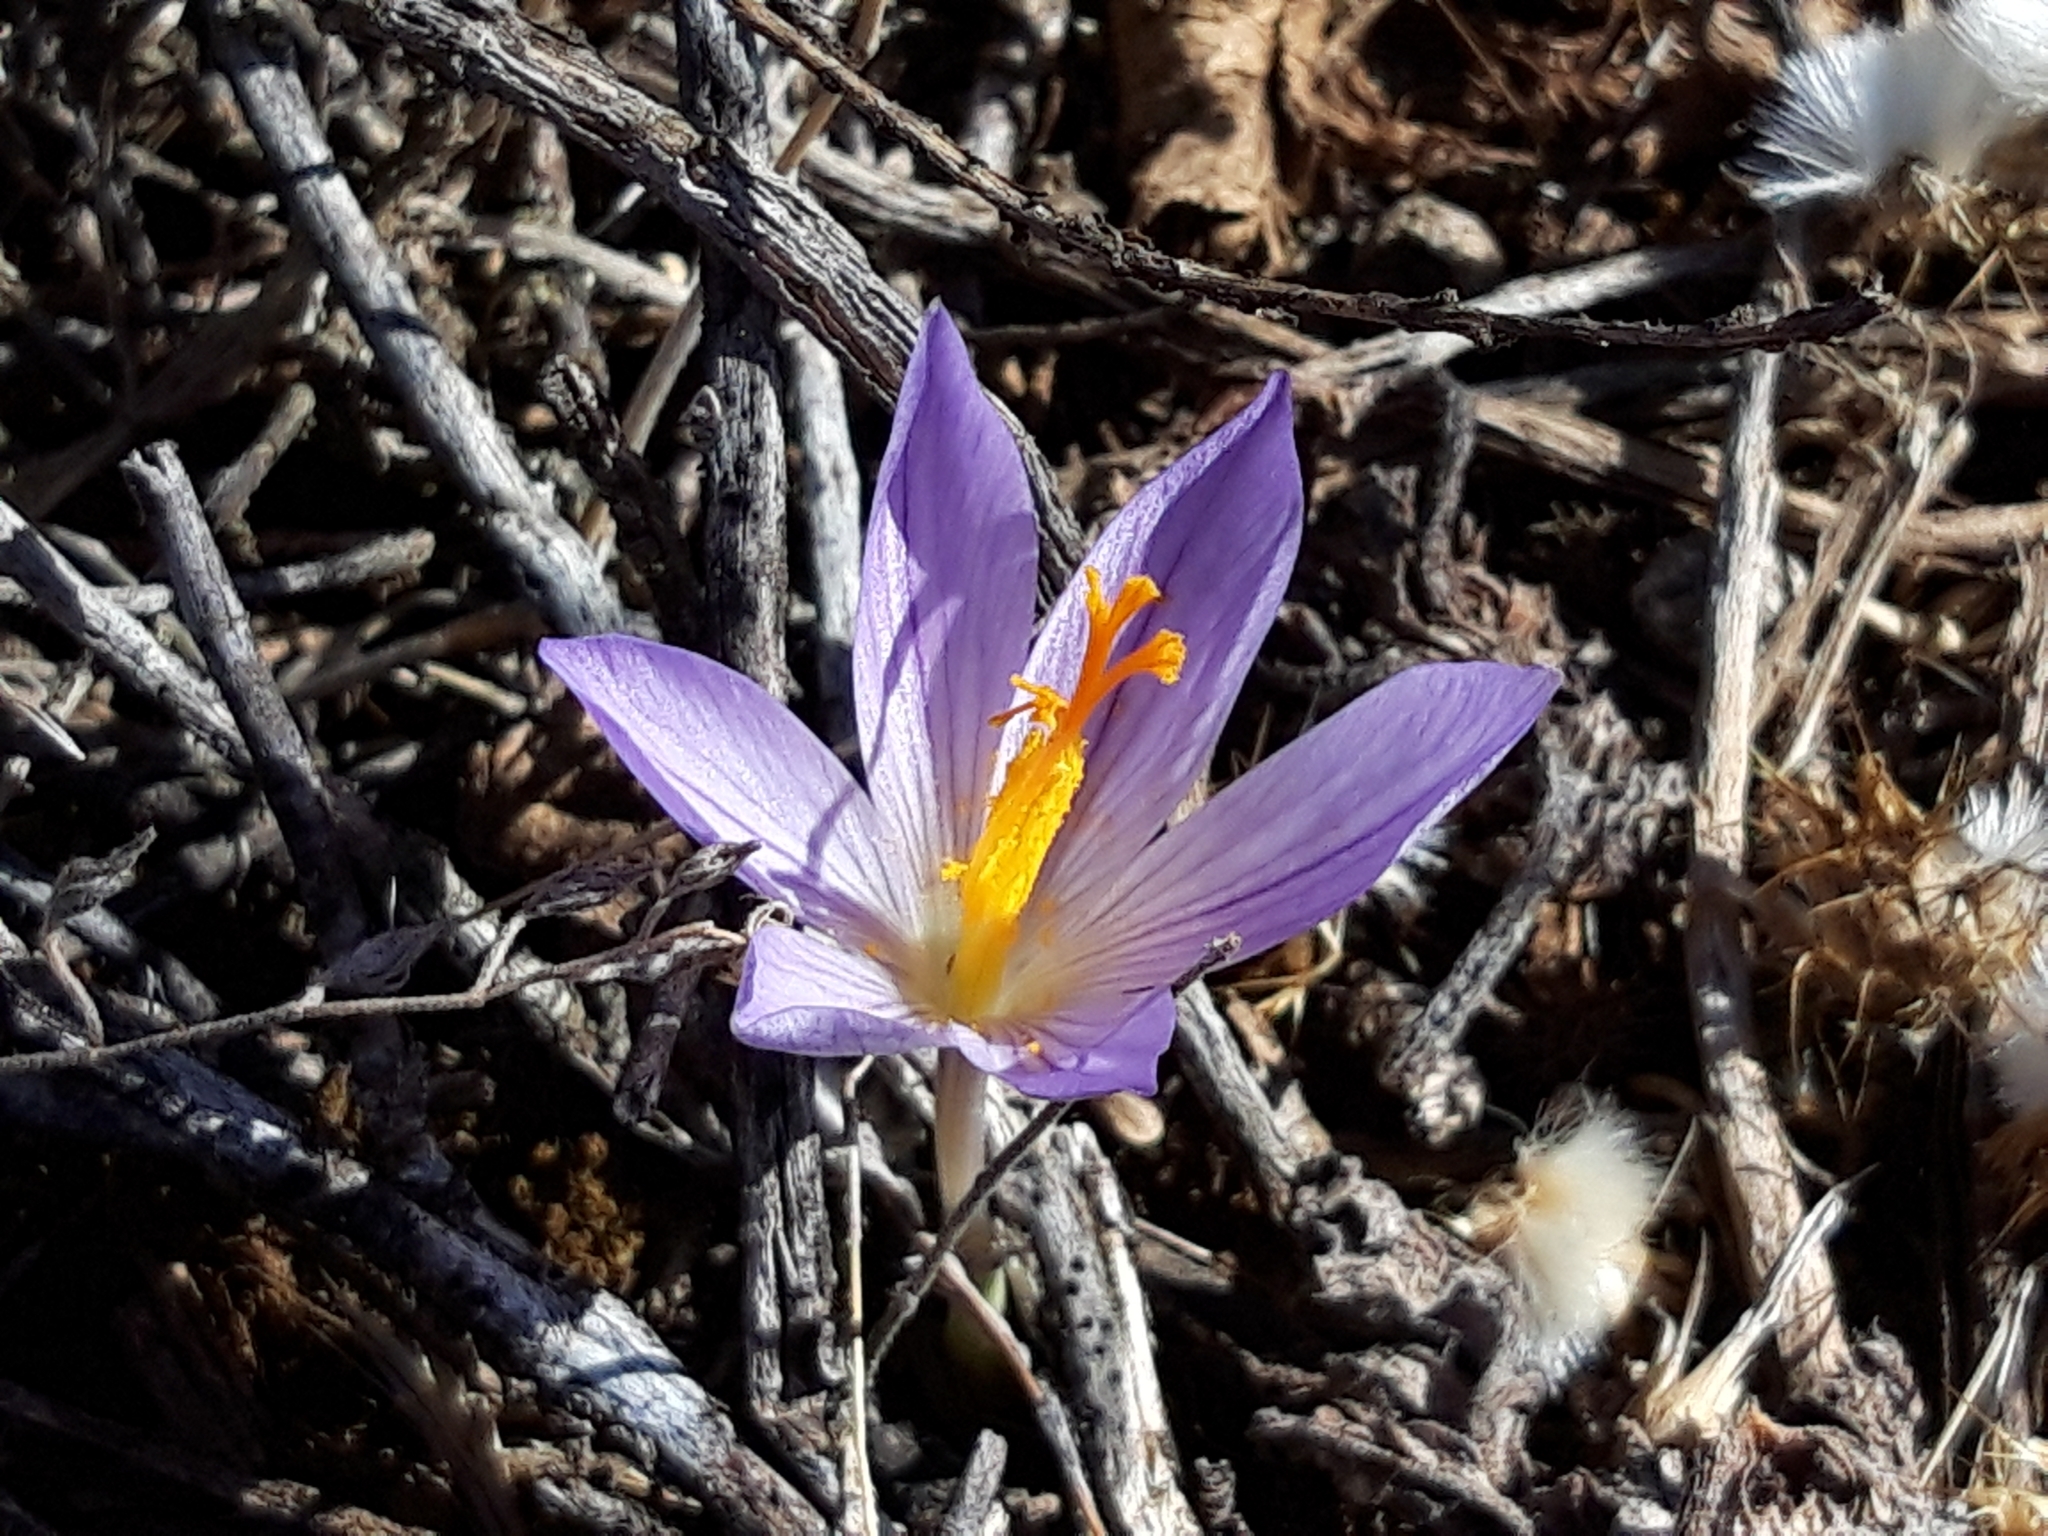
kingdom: Plantae
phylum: Tracheophyta
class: Liliopsida
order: Asparagales
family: Iridaceae
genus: Crocus
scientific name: Crocus serotinus
